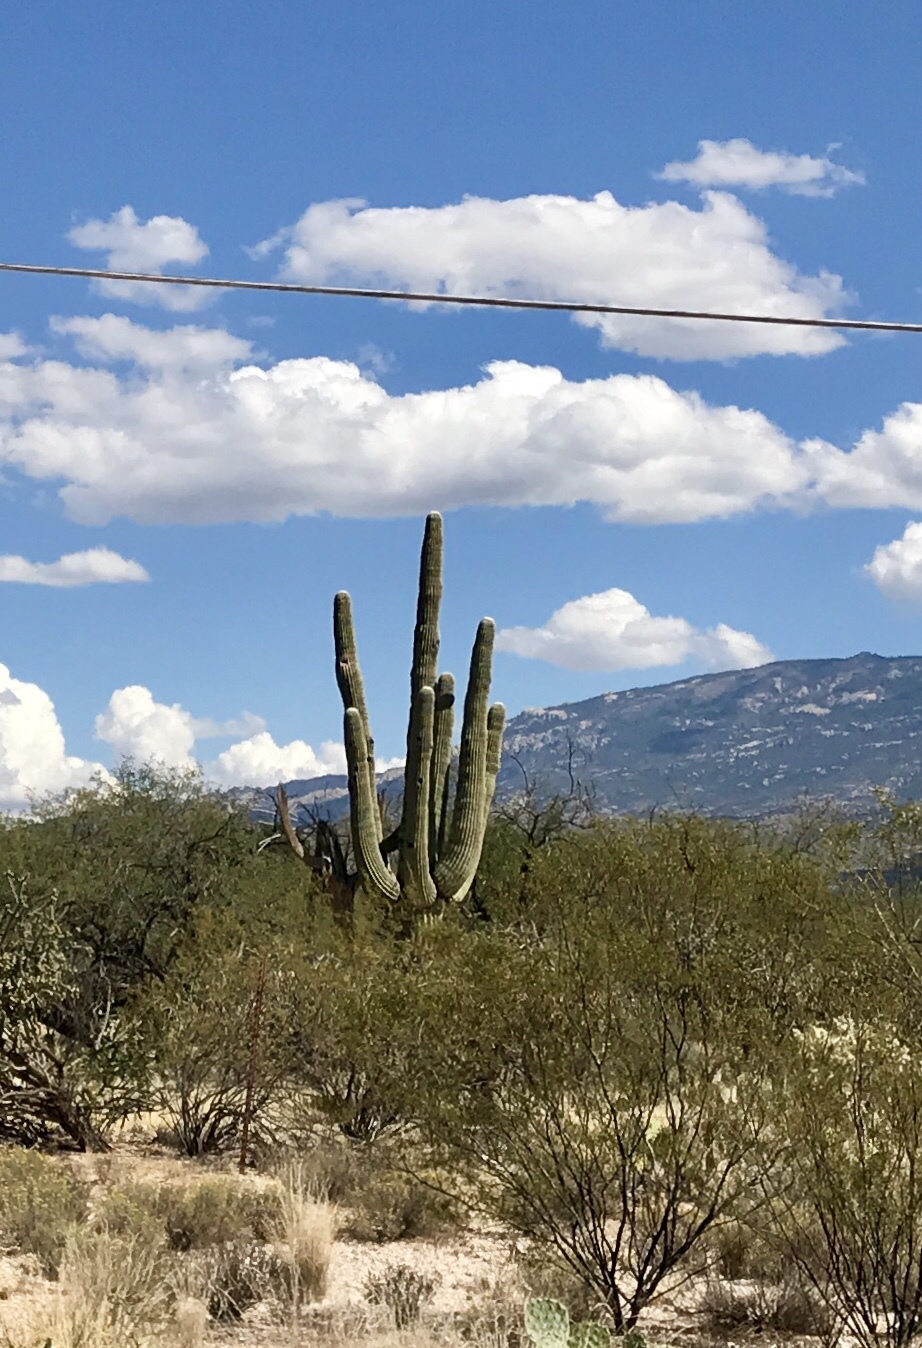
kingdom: Plantae
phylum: Tracheophyta
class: Magnoliopsida
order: Caryophyllales
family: Cactaceae
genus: Carnegiea
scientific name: Carnegiea gigantea
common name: Saguaro
